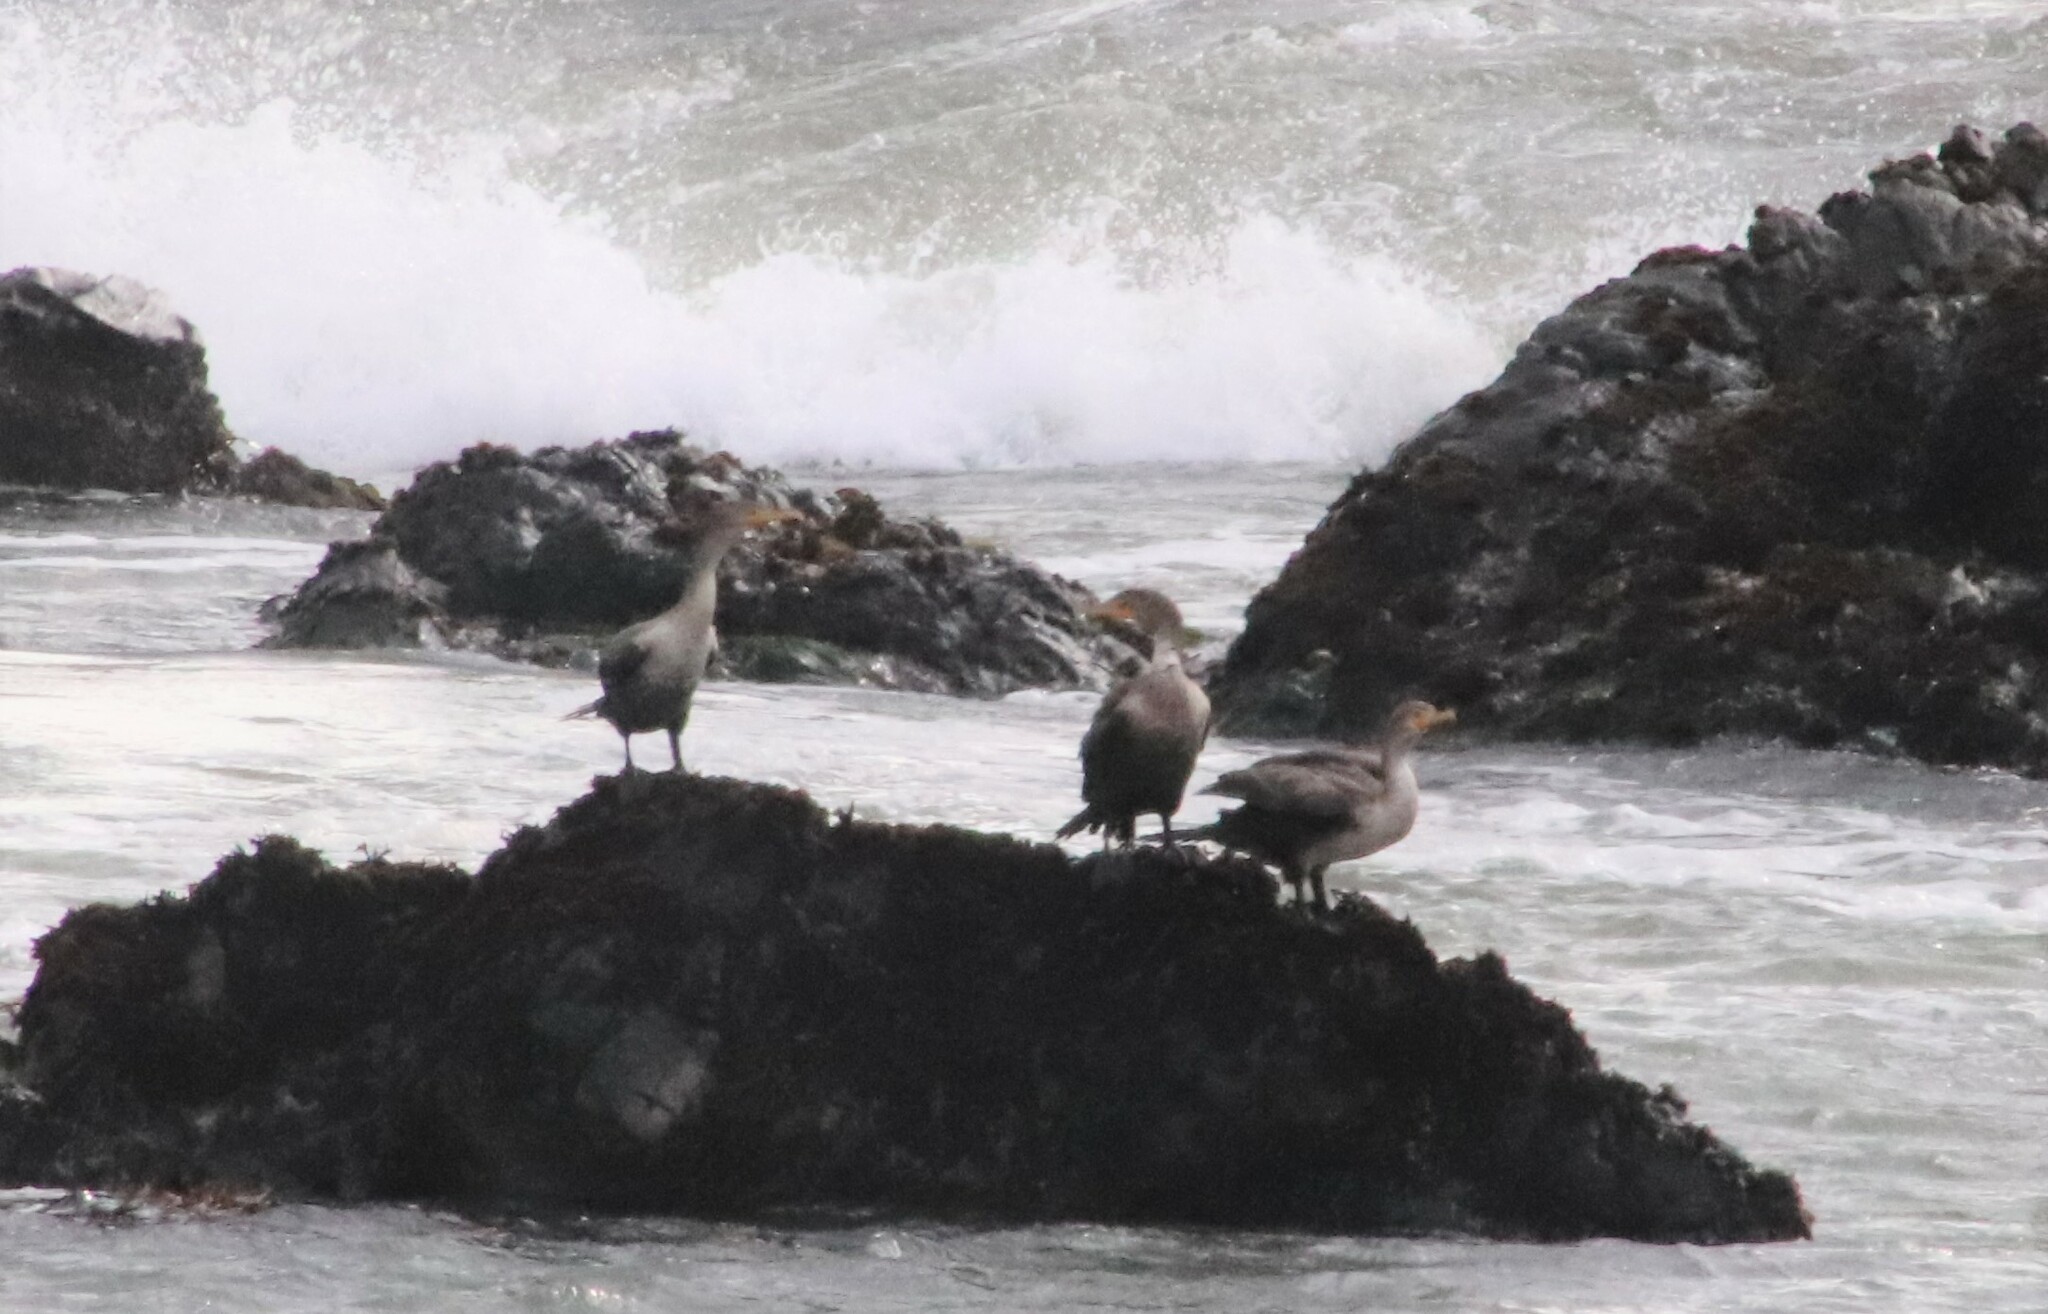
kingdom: Animalia
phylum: Chordata
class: Aves
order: Suliformes
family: Phalacrocoracidae
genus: Phalacrocorax
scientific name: Phalacrocorax auritus
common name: Double-crested cormorant
